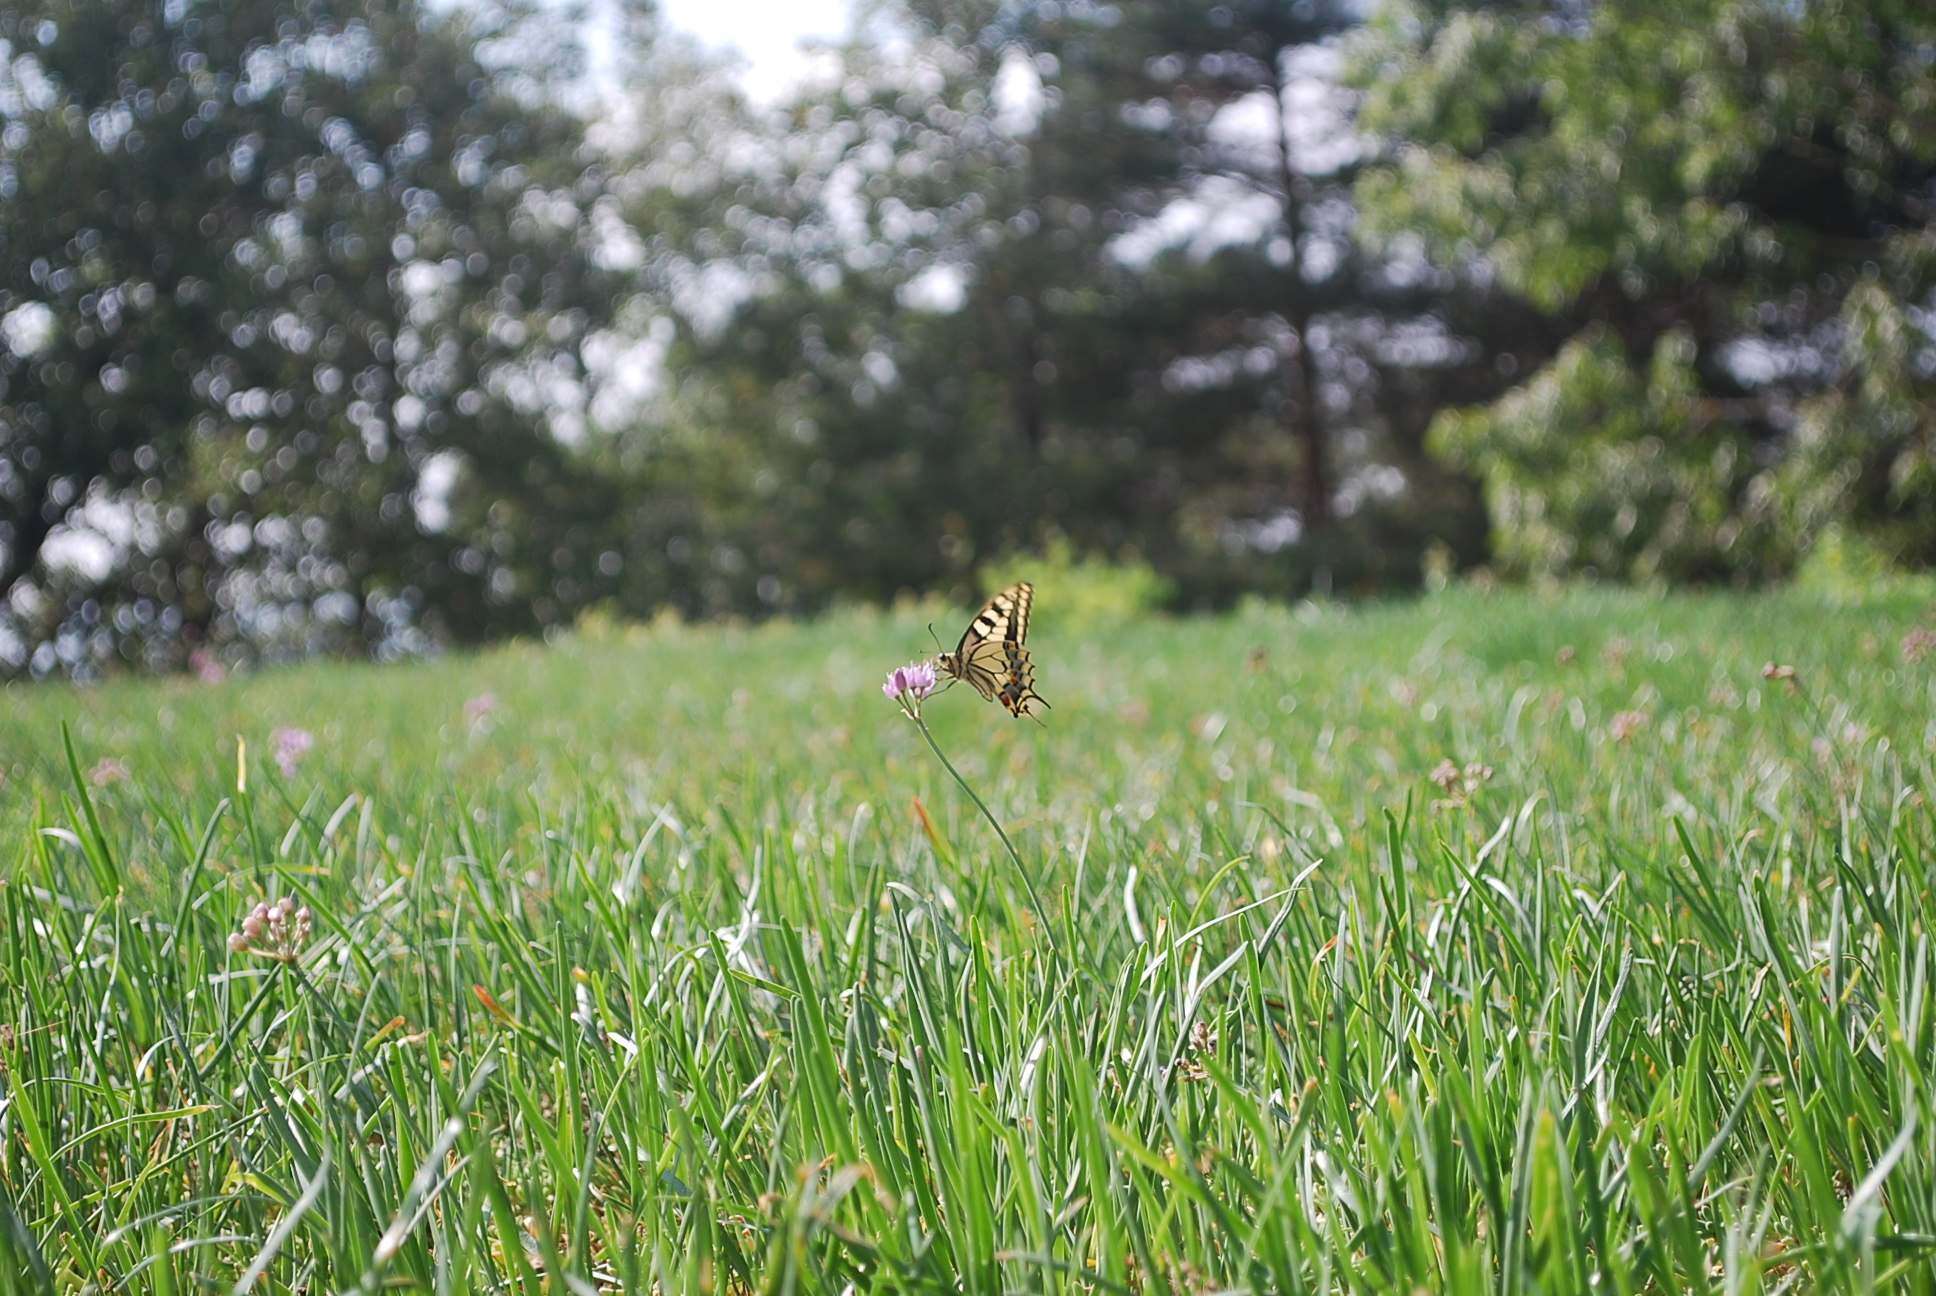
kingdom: Animalia
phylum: Arthropoda
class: Insecta
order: Lepidoptera
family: Papilionidae
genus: Papilio
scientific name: Papilio machaon
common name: Swallowtail
